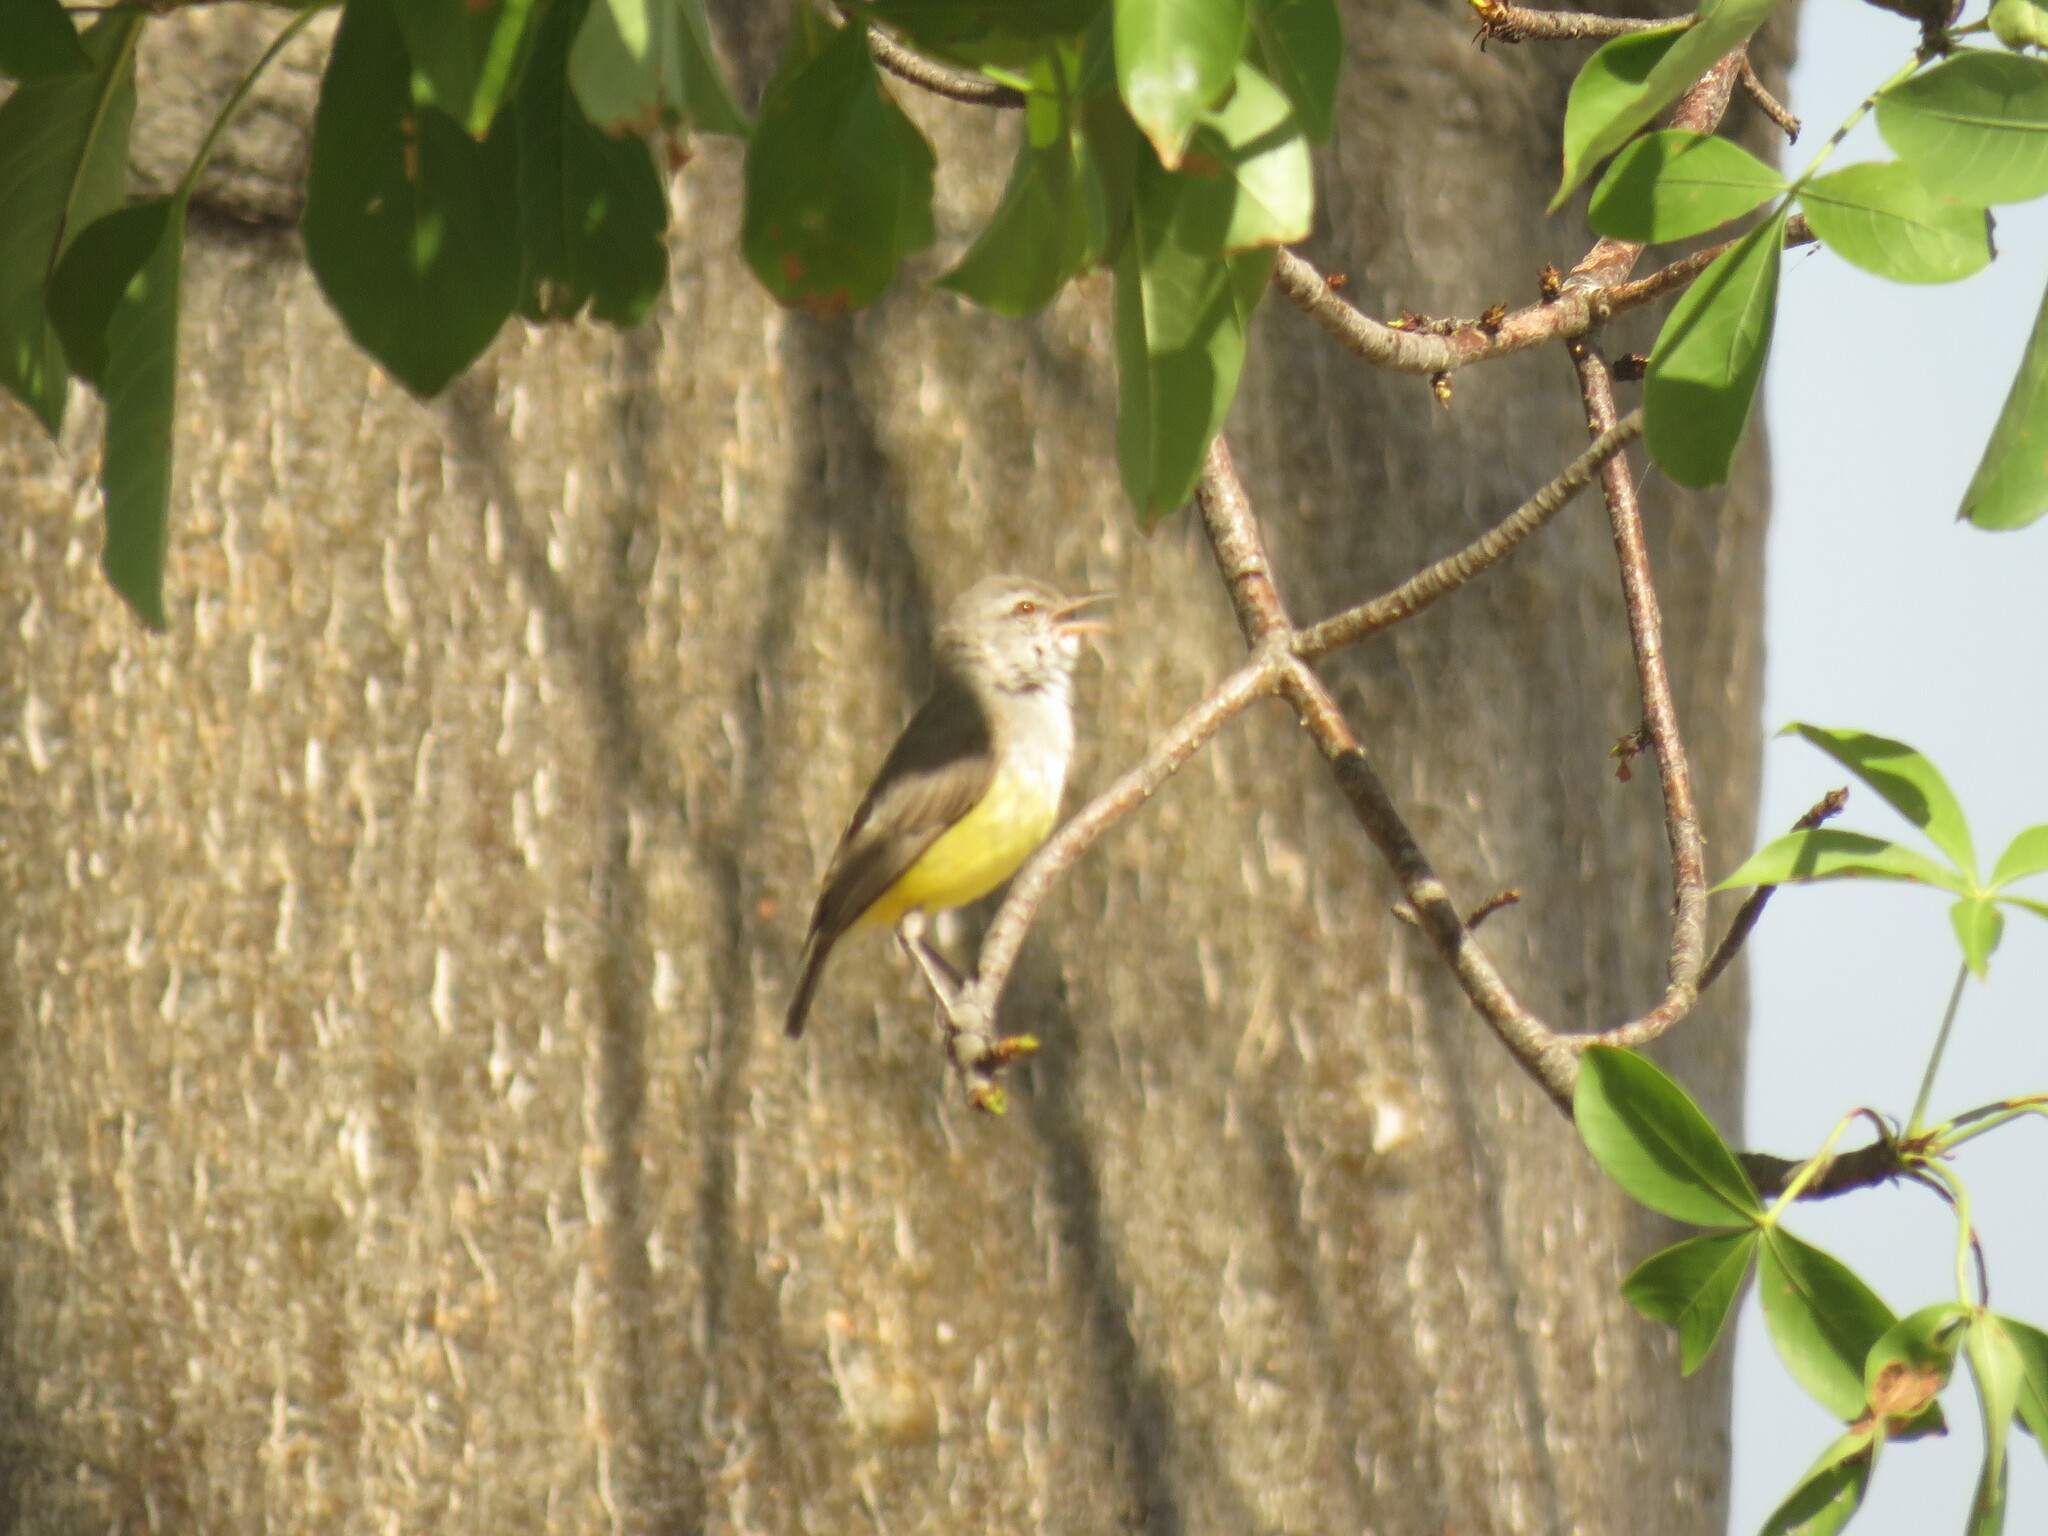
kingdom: Animalia
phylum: Chordata
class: Aves
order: Passeriformes
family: Cisticolidae
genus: Eremomela
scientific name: Eremomela icteropygialis
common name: Yellow-bellied eremomela
